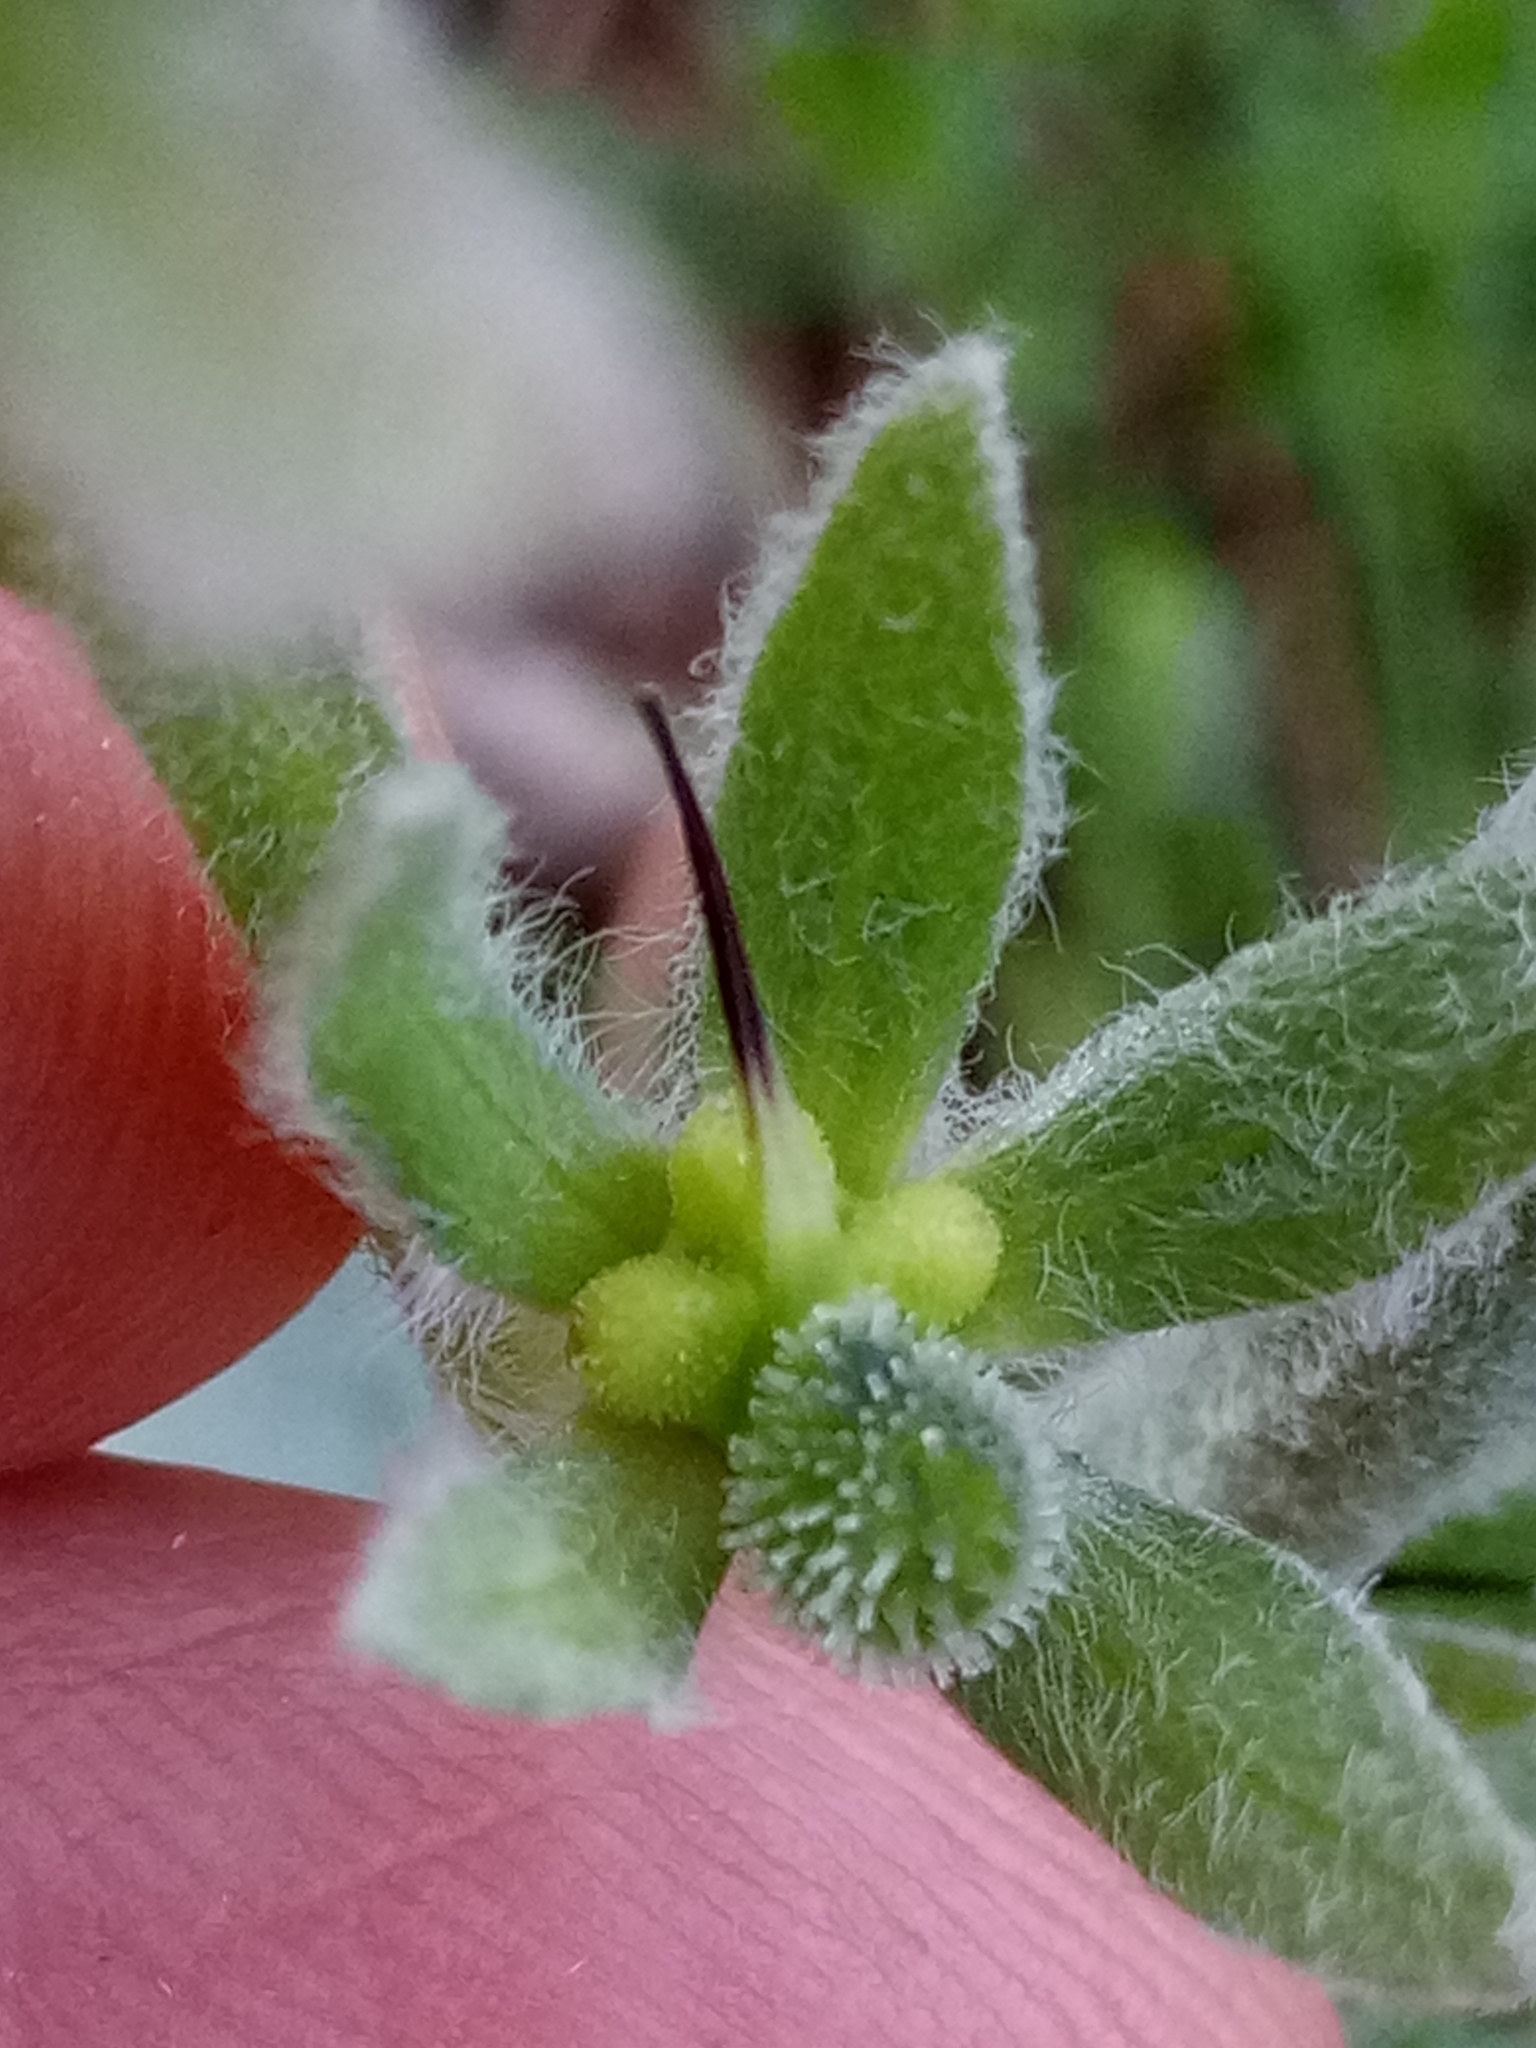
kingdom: Plantae
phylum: Tracheophyta
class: Magnoliopsida
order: Boraginales
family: Boraginaceae
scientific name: Boraginaceae
